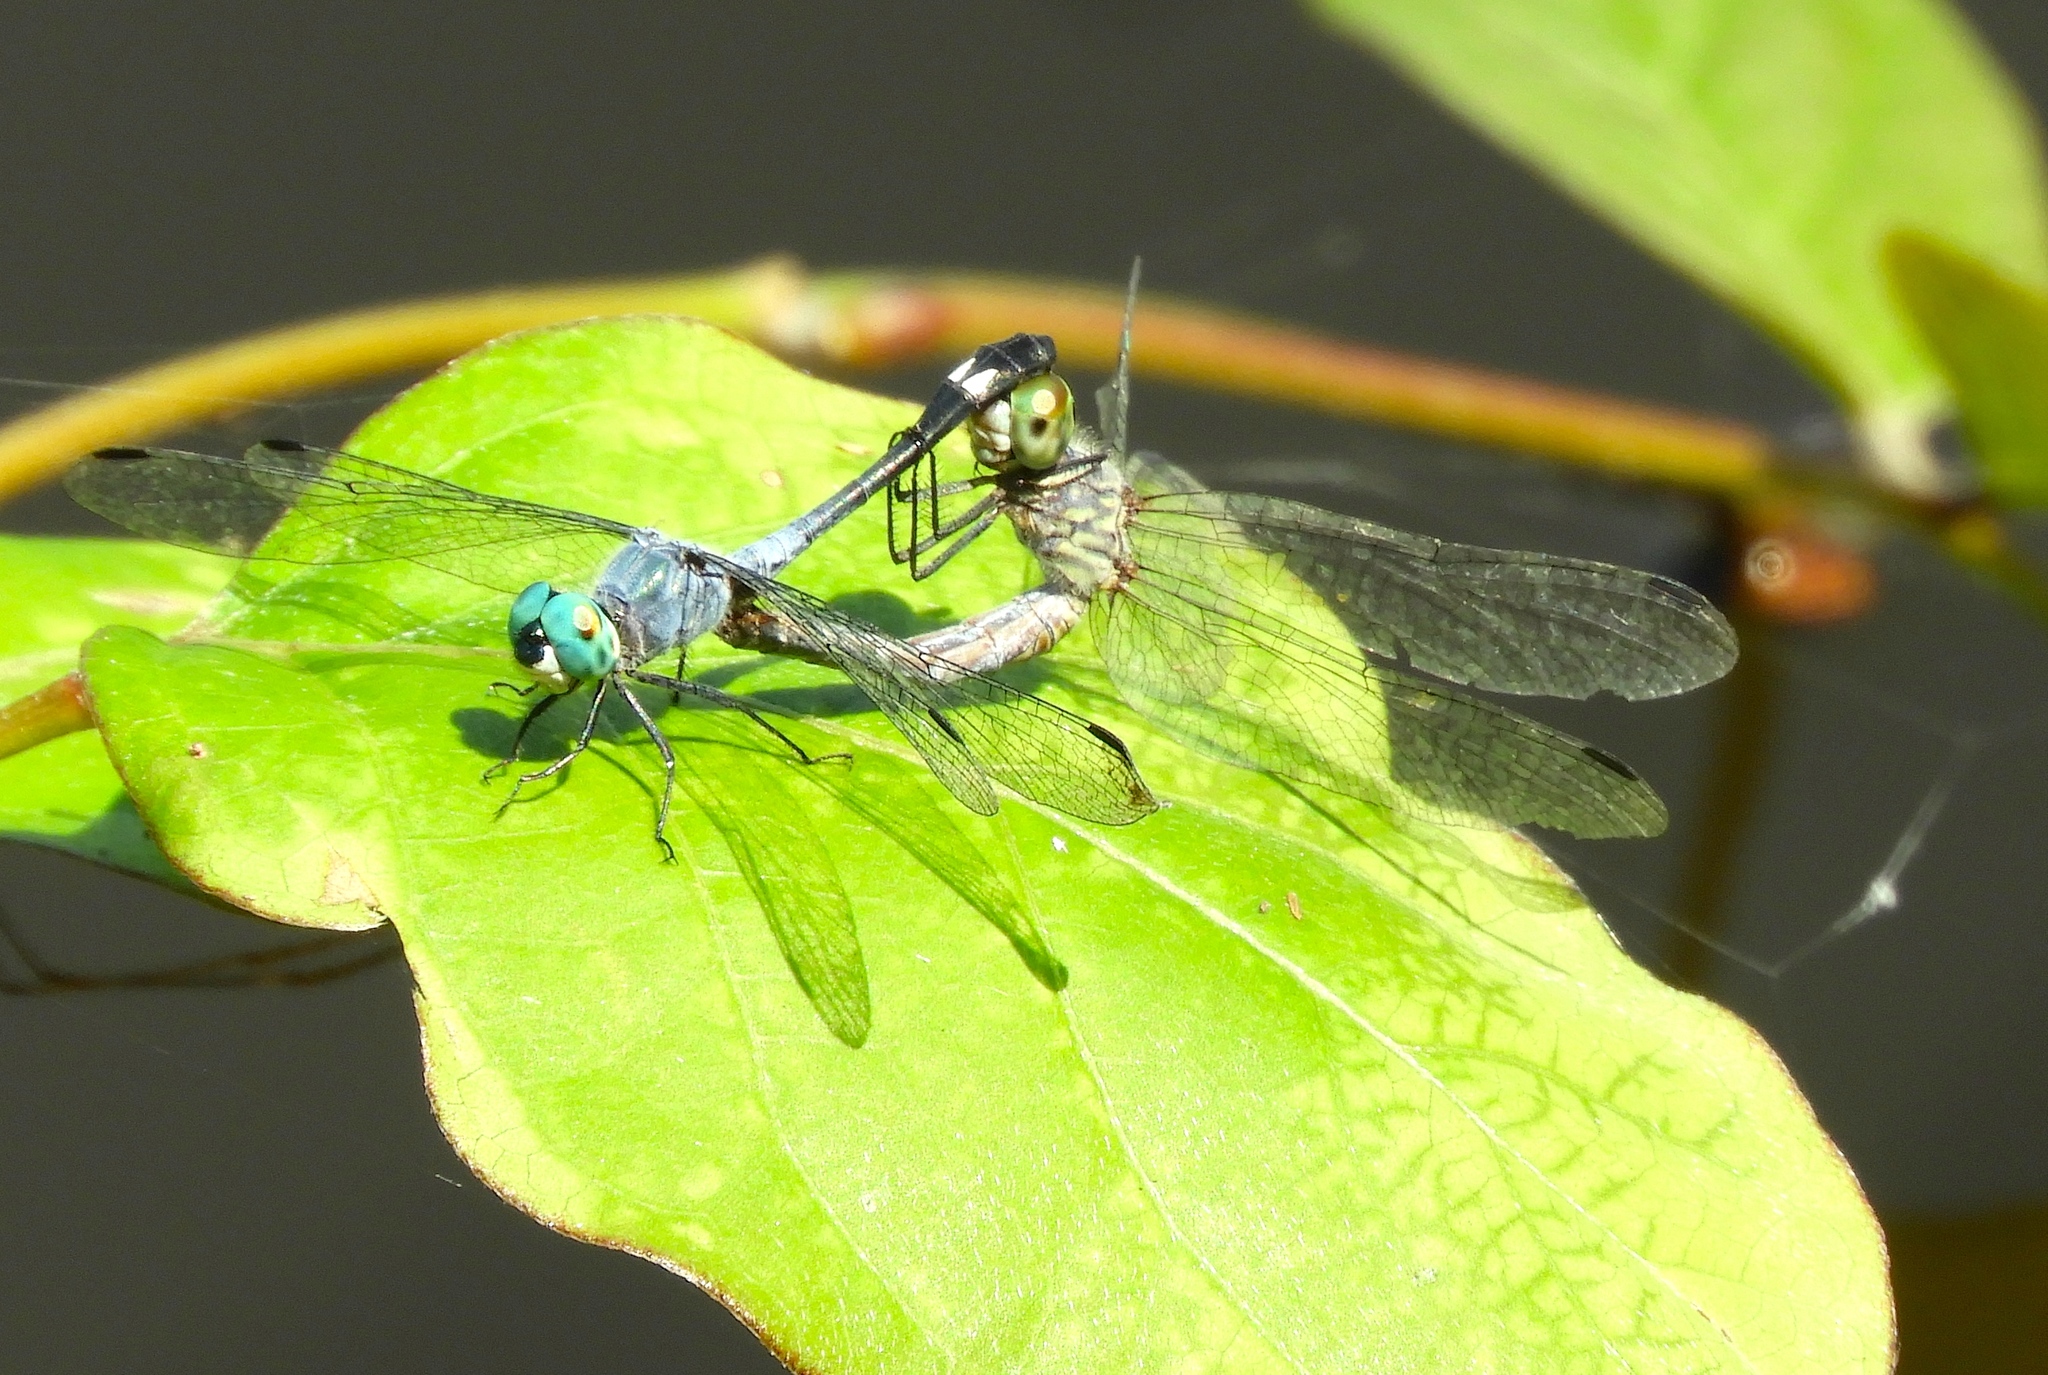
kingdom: Animalia
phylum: Arthropoda
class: Insecta
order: Odonata
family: Libellulidae
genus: Micrathyria
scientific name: Micrathyria aequalis
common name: Spot-tailed dasher
